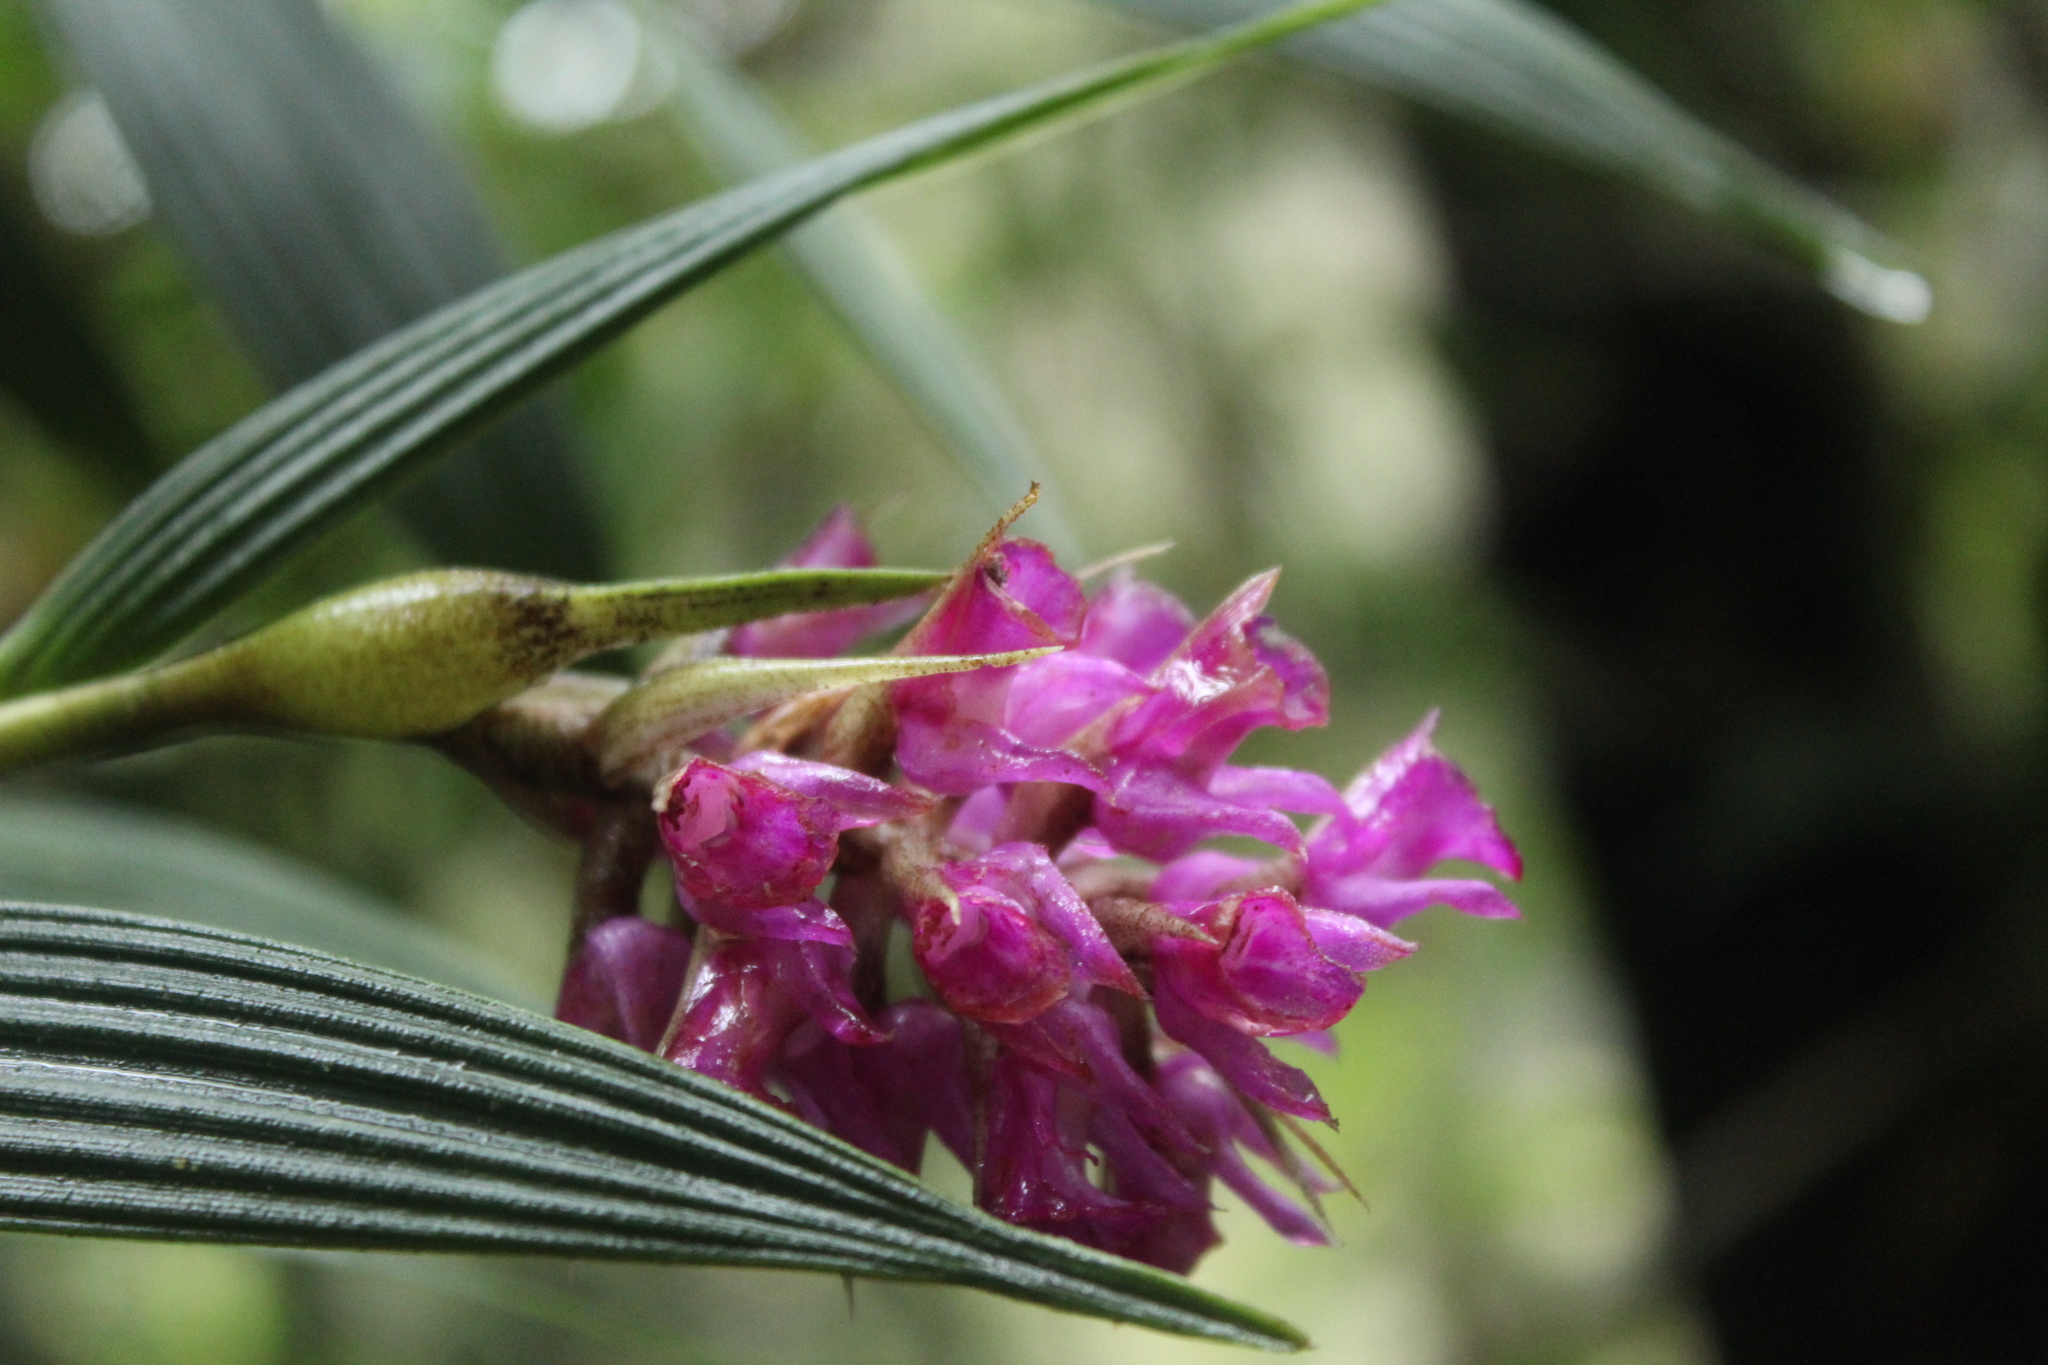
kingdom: Plantae
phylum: Tracheophyta
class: Liliopsida
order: Asparagales
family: Orchidaceae
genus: Elleanthus
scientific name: Elleanthus maculatus
